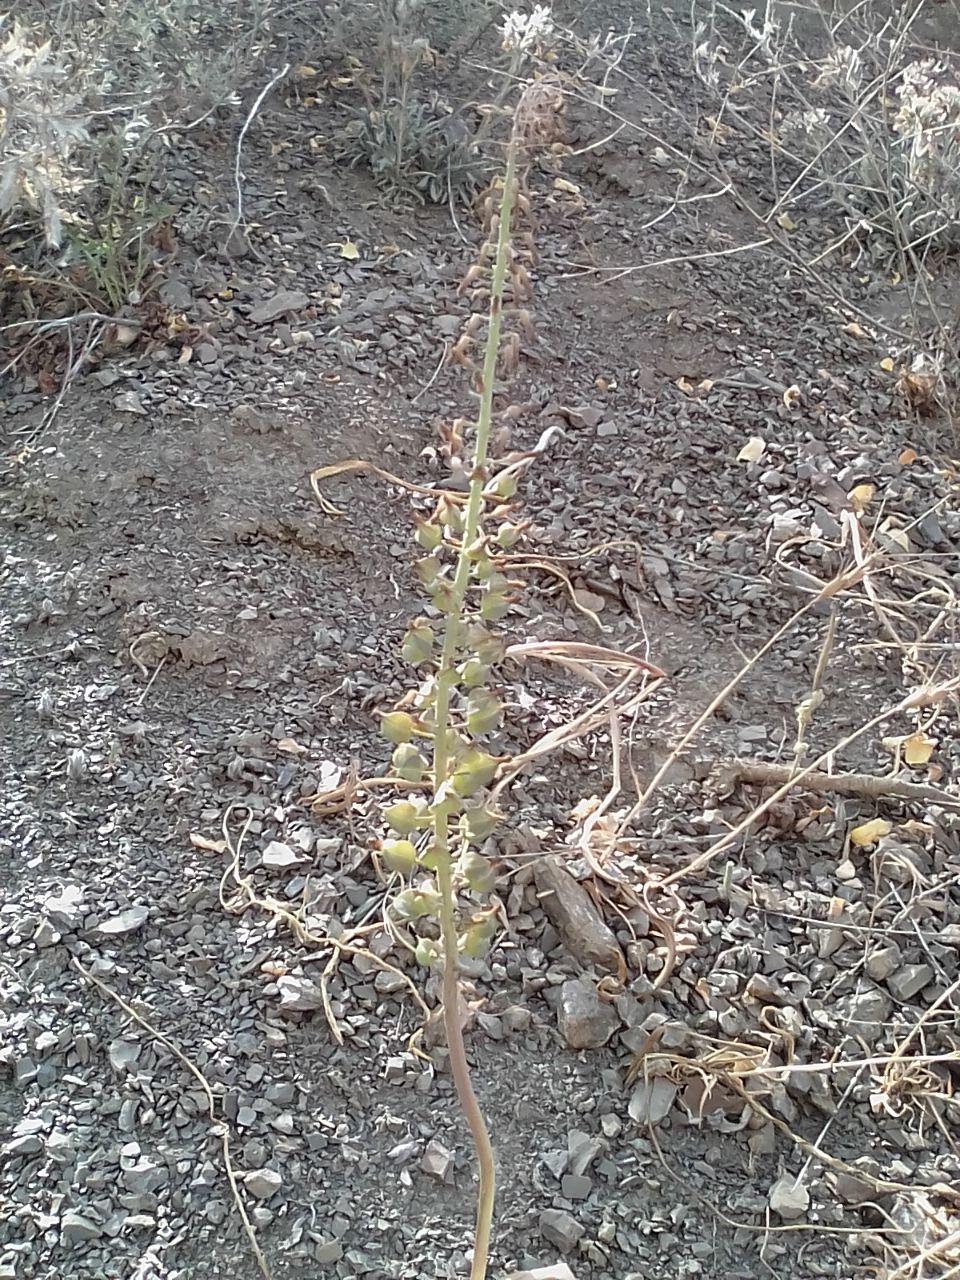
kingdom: Plantae
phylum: Tracheophyta
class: Liliopsida
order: Asparagales
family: Asparagaceae
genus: Muscari
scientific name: Muscari comosum
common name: Tassel hyacinth
